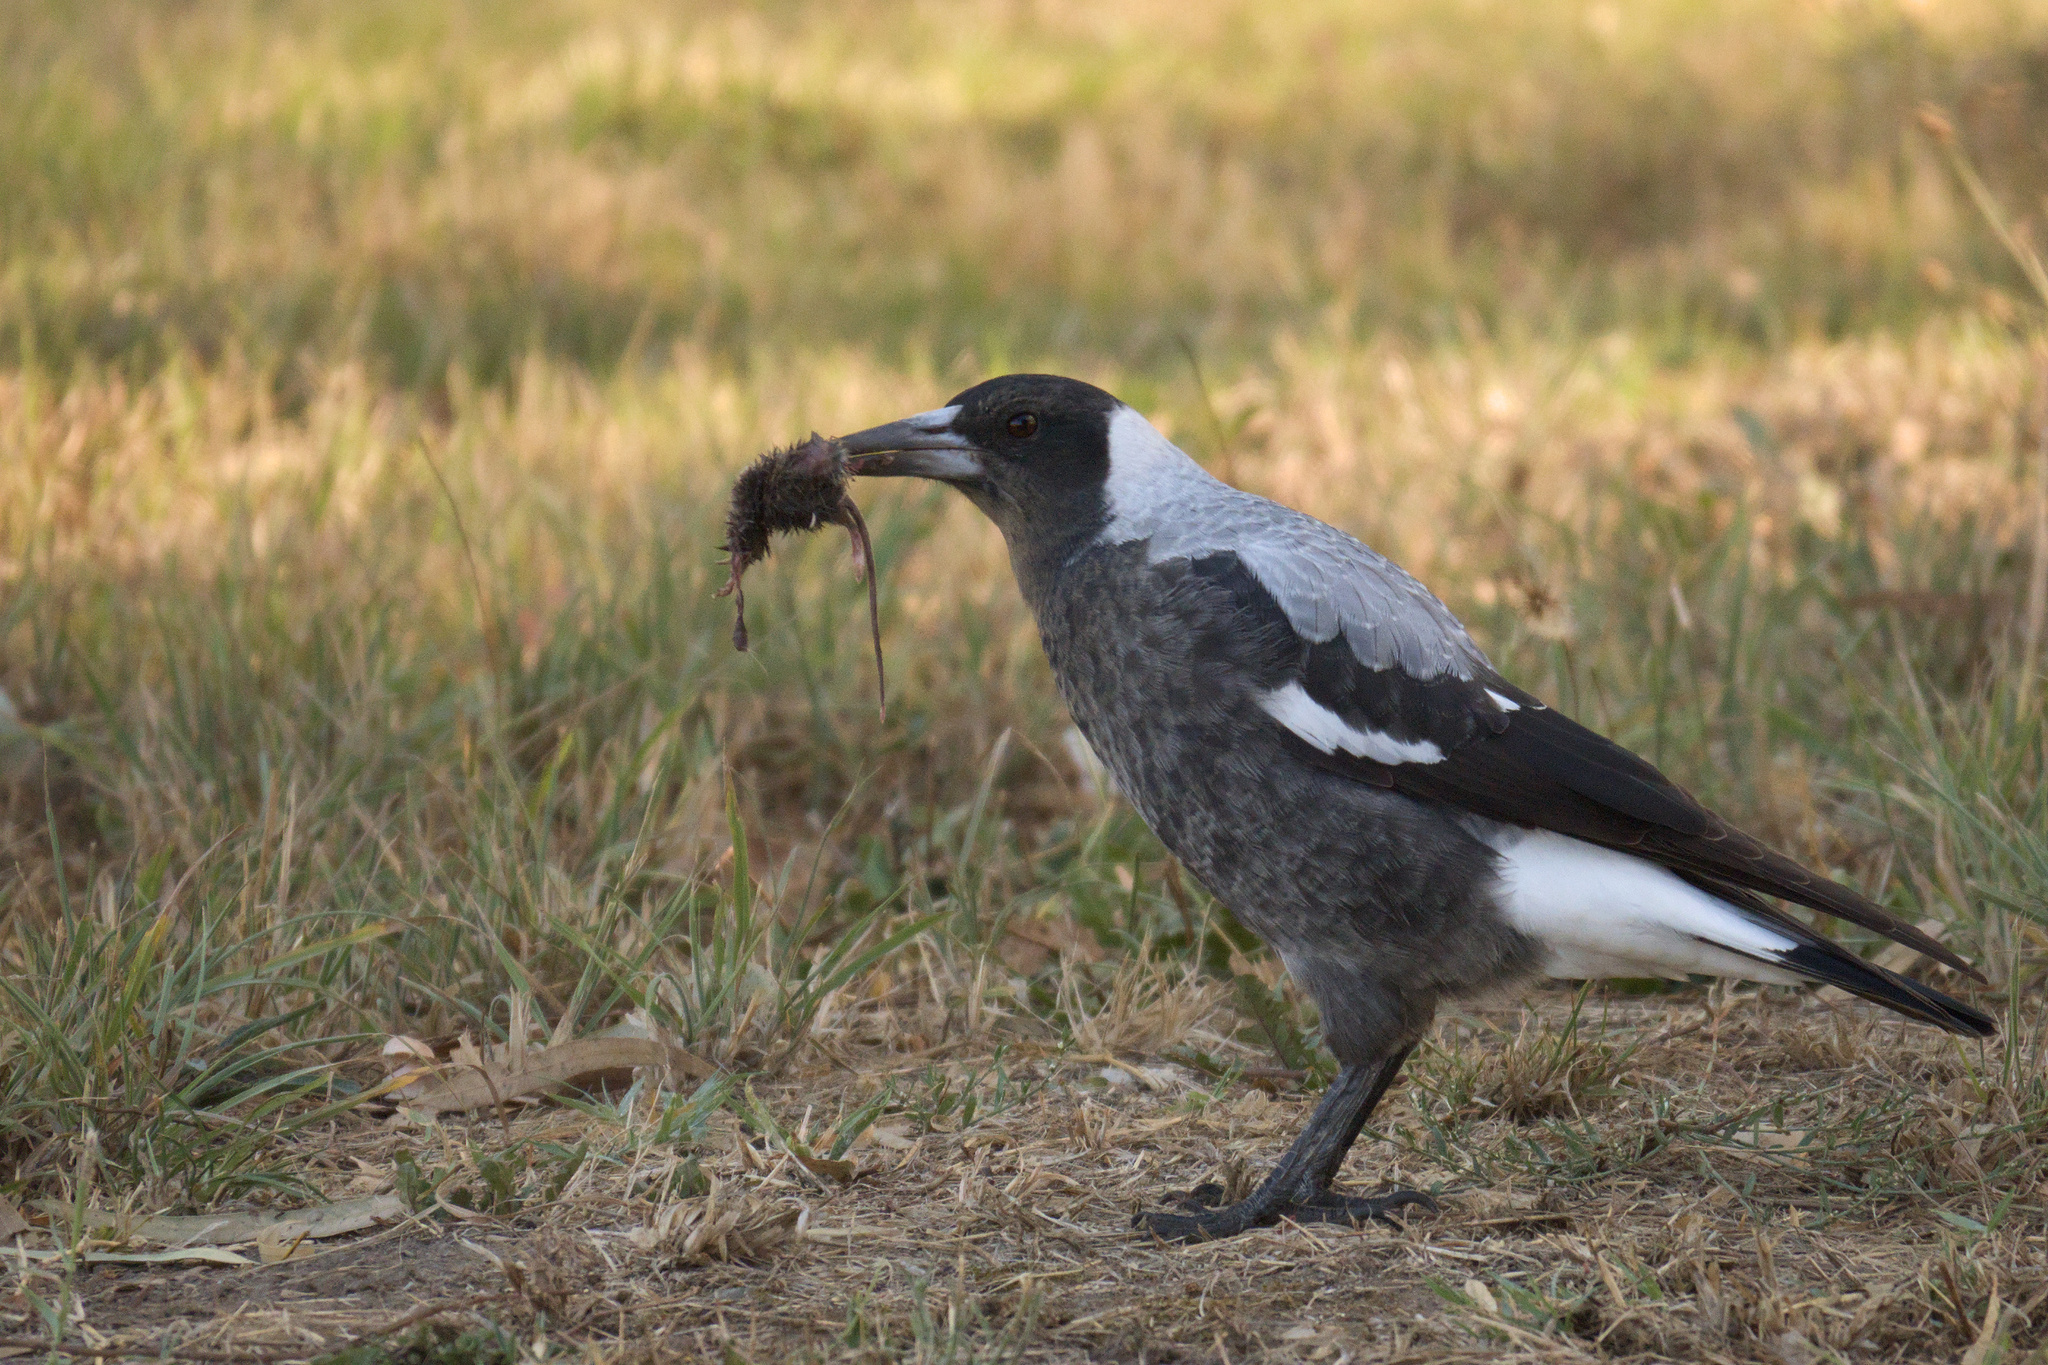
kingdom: Animalia
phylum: Chordata
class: Aves
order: Passeriformes
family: Cracticidae
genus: Gymnorhina
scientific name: Gymnorhina tibicen
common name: Australian magpie
